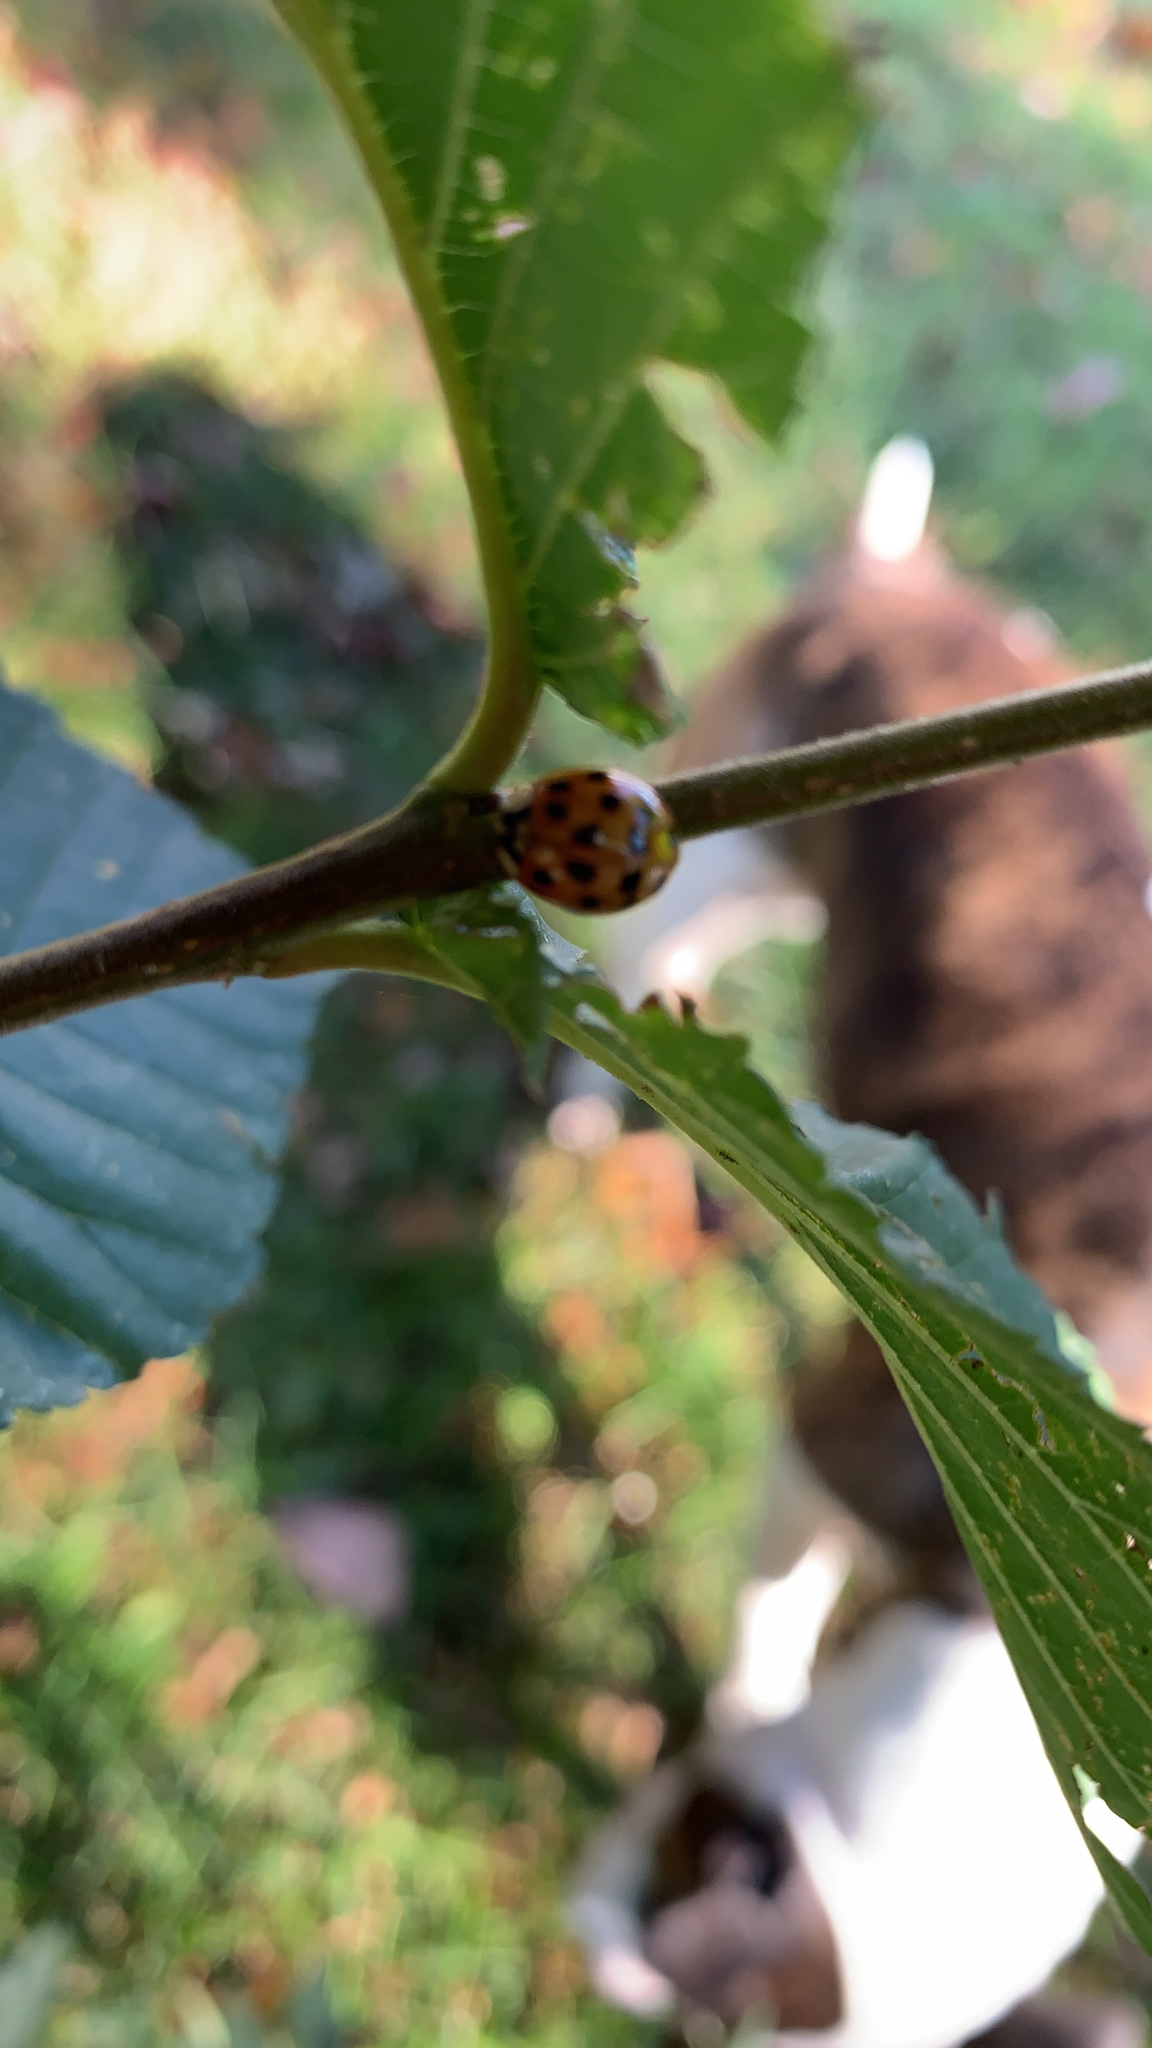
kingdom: Animalia
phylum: Arthropoda
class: Insecta
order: Coleoptera
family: Coccinellidae
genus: Harmonia
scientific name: Harmonia axyridis
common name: Harlequin ladybird
